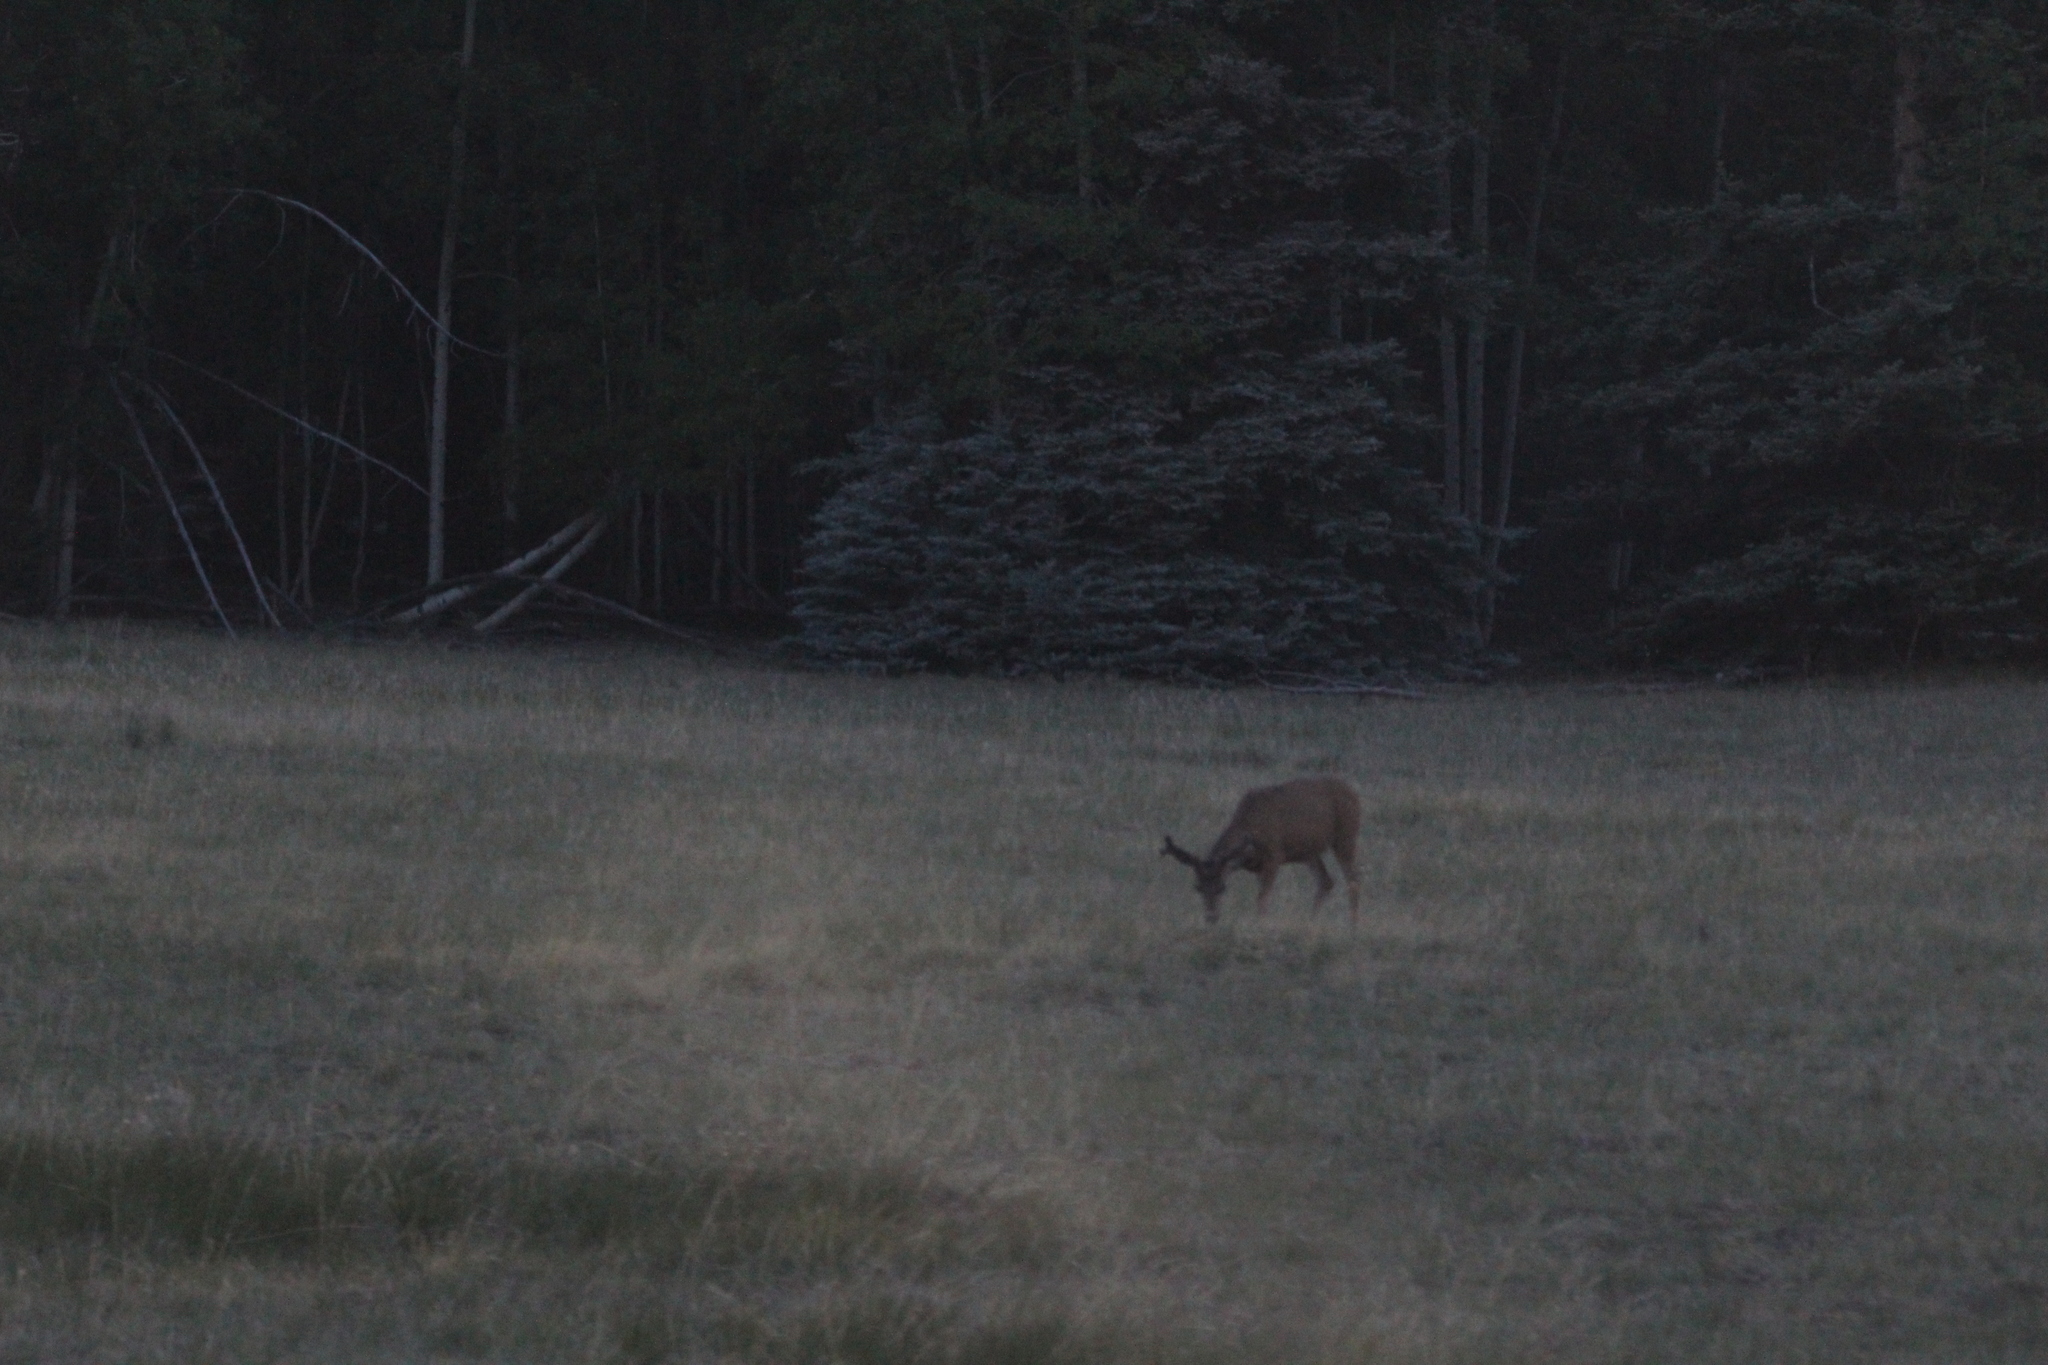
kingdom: Animalia
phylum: Chordata
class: Mammalia
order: Artiodactyla
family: Cervidae
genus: Odocoileus
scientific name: Odocoileus hemionus
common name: Mule deer
